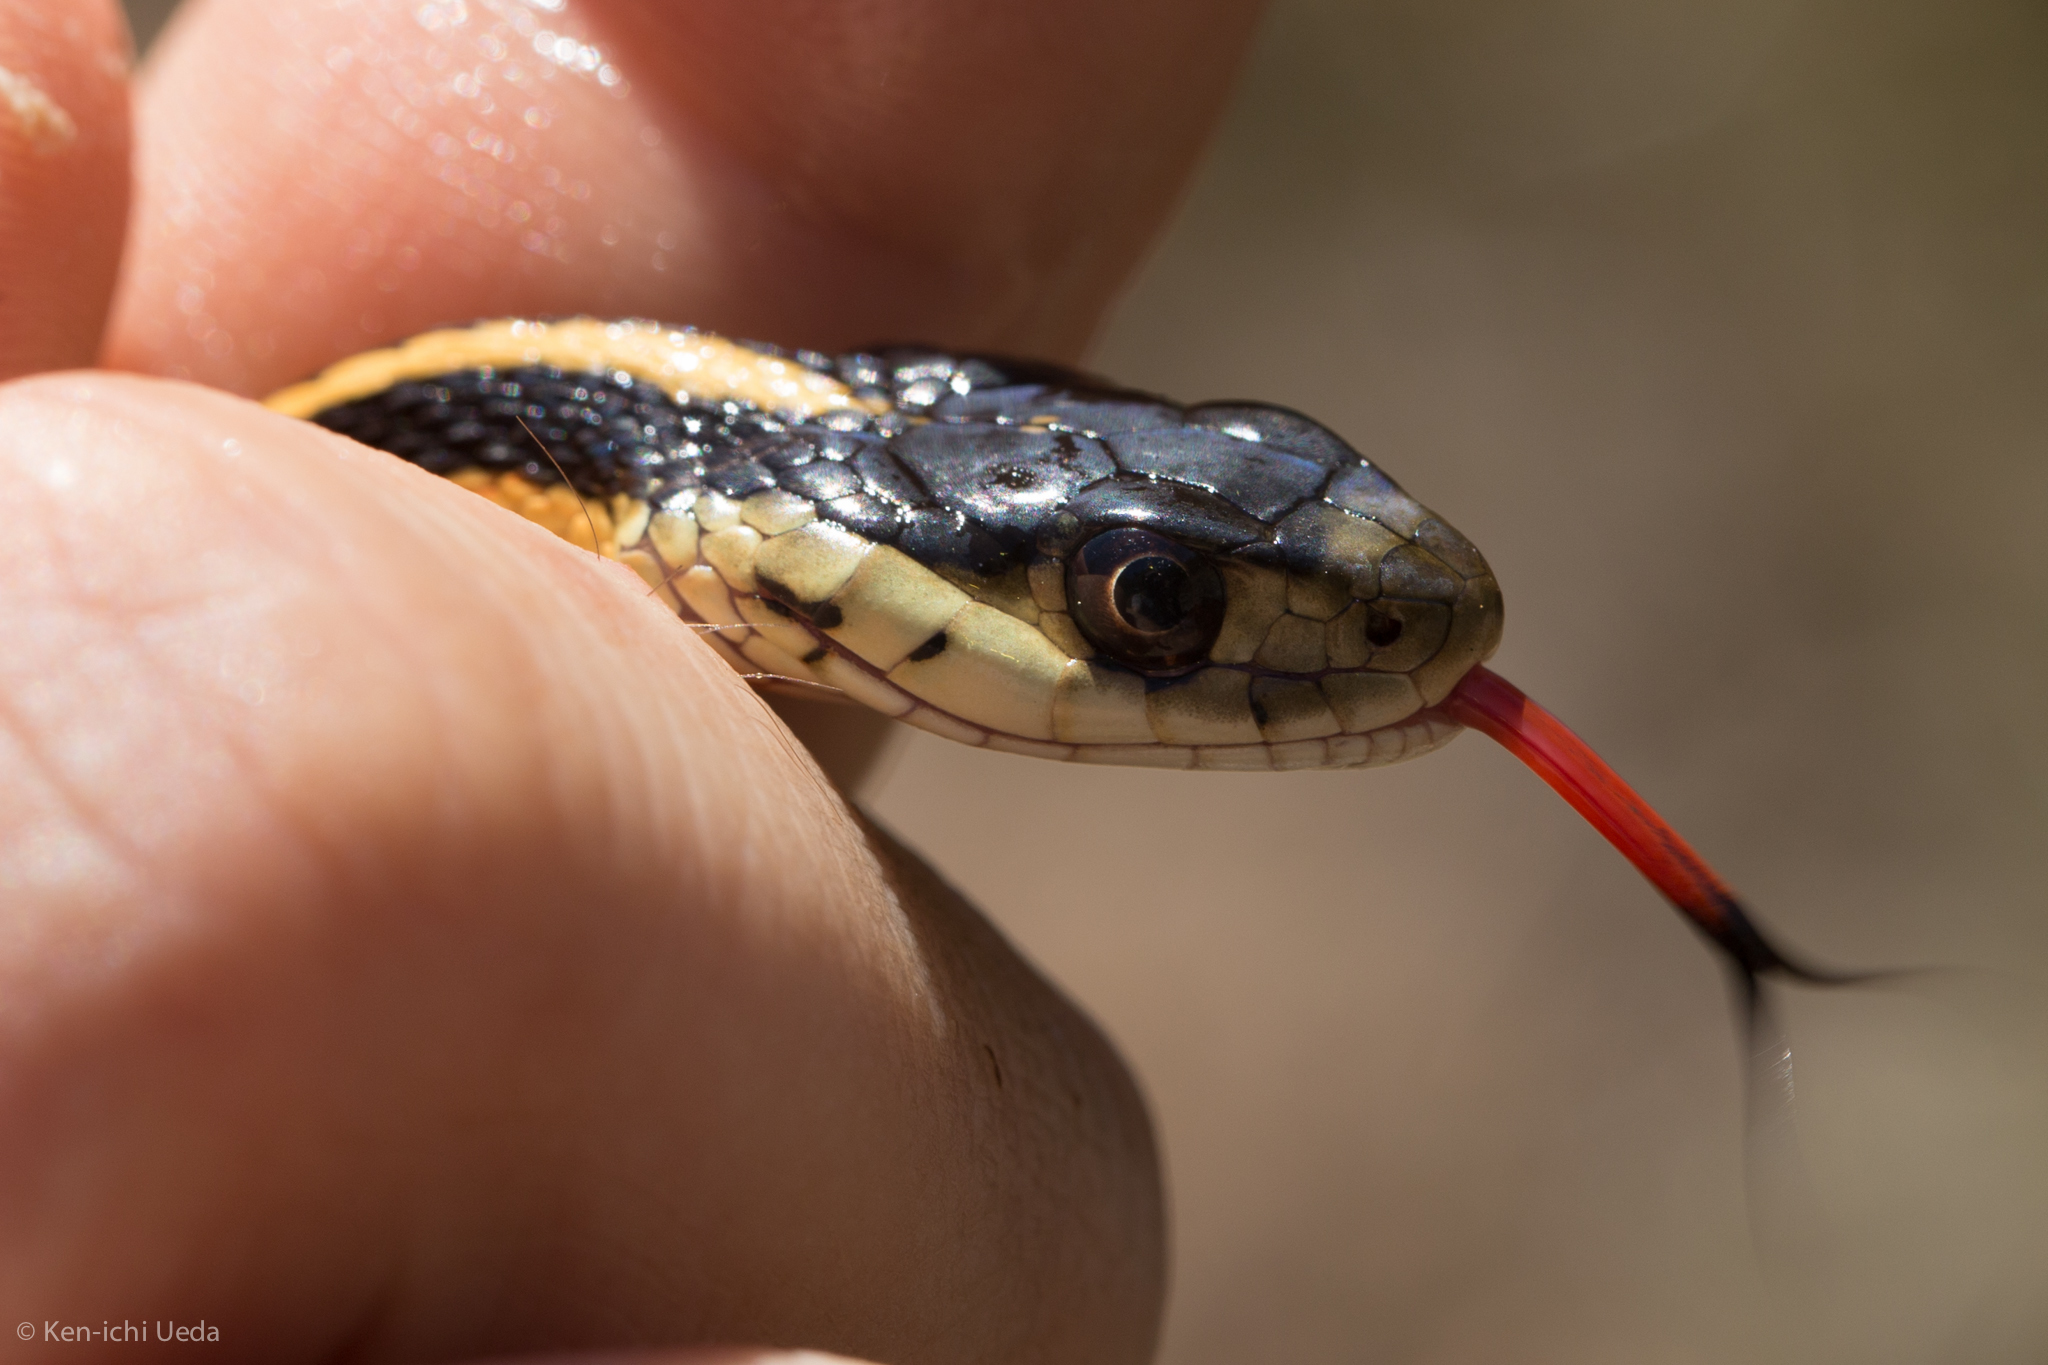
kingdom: Animalia
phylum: Chordata
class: Squamata
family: Colubridae
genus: Thamnophis
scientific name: Thamnophis sirtalis
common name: Common garter snake
